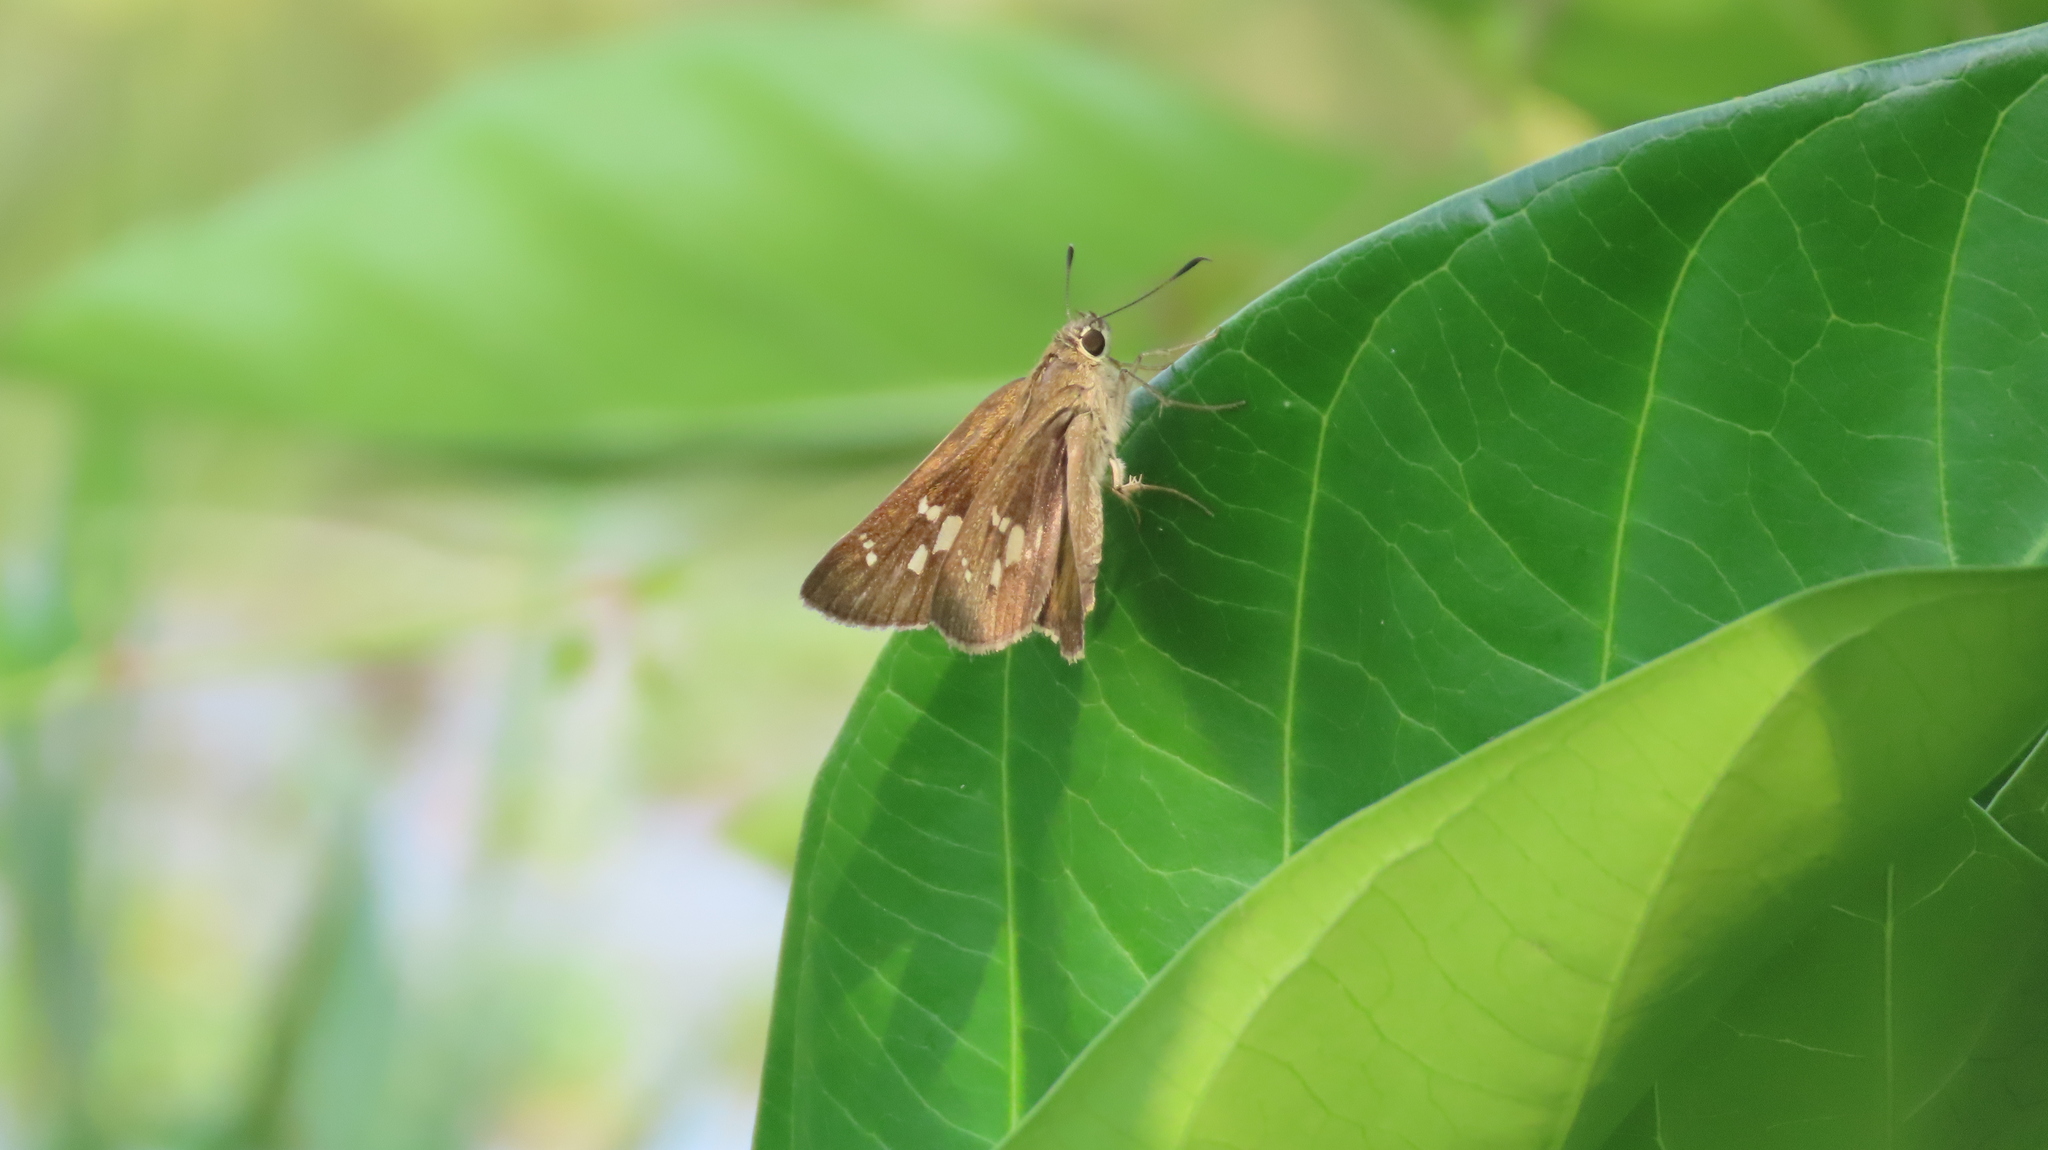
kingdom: Animalia
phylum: Arthropoda
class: Insecta
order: Lepidoptera
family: Hesperiidae
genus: Suastus
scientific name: Suastus gremius
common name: Indian palm bob
